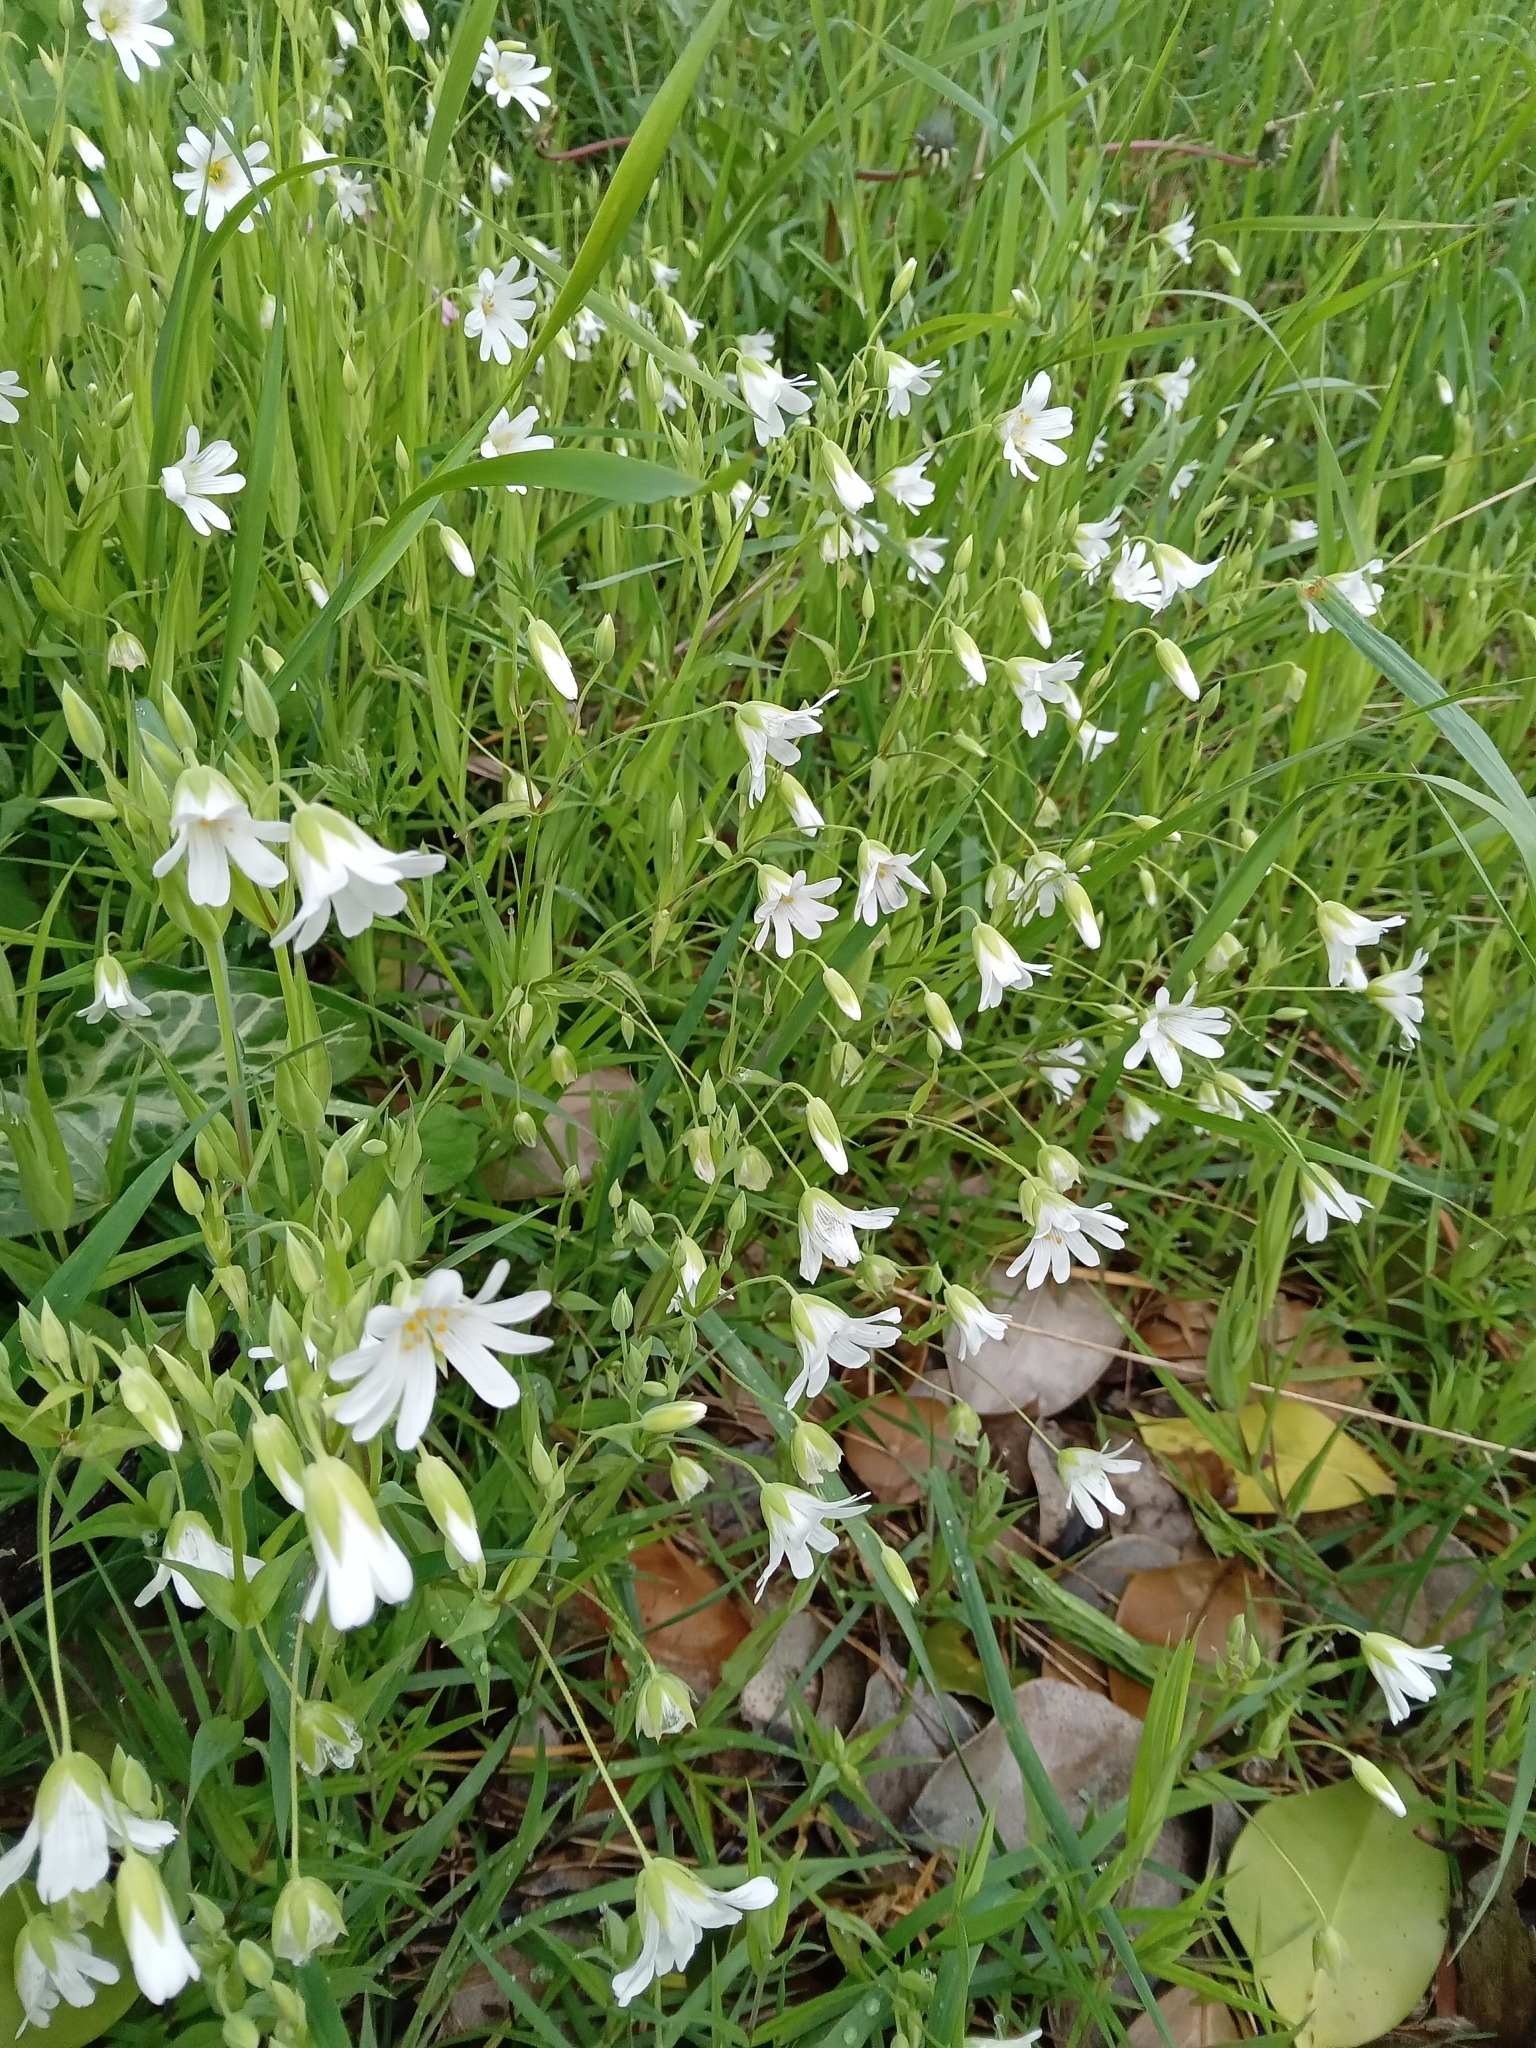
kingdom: Plantae
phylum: Tracheophyta
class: Magnoliopsida
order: Caryophyllales
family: Caryophyllaceae
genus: Rabelera
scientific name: Rabelera holostea
